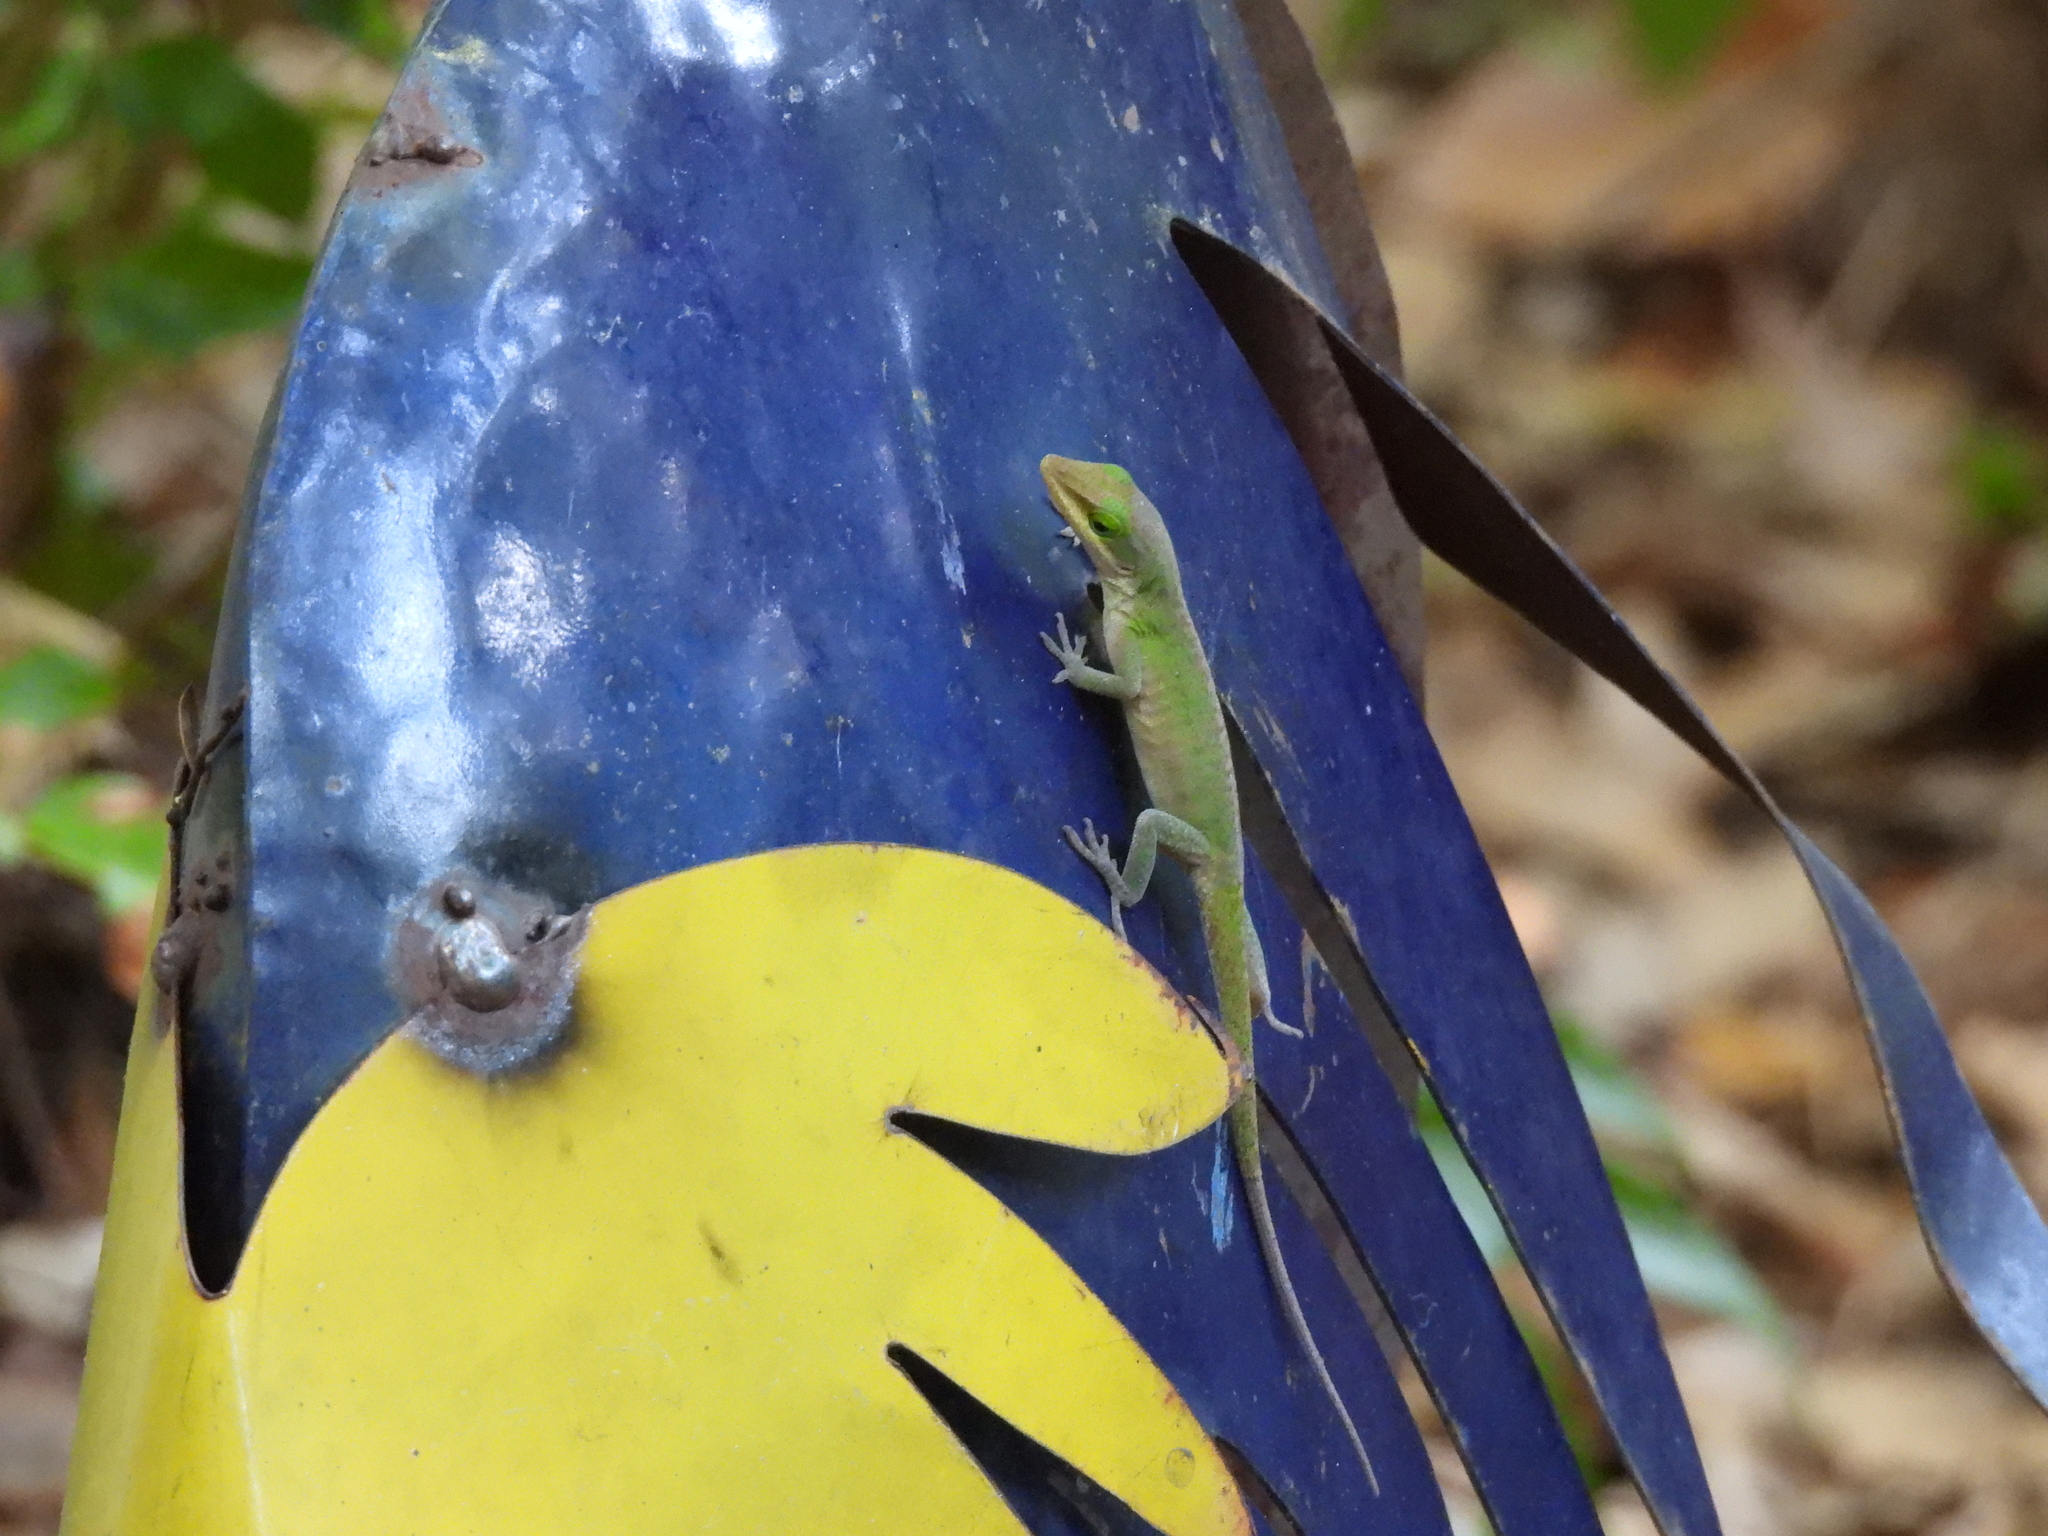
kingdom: Animalia
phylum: Chordata
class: Squamata
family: Dactyloidae
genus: Anolis
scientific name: Anolis carolinensis
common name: Green anole
